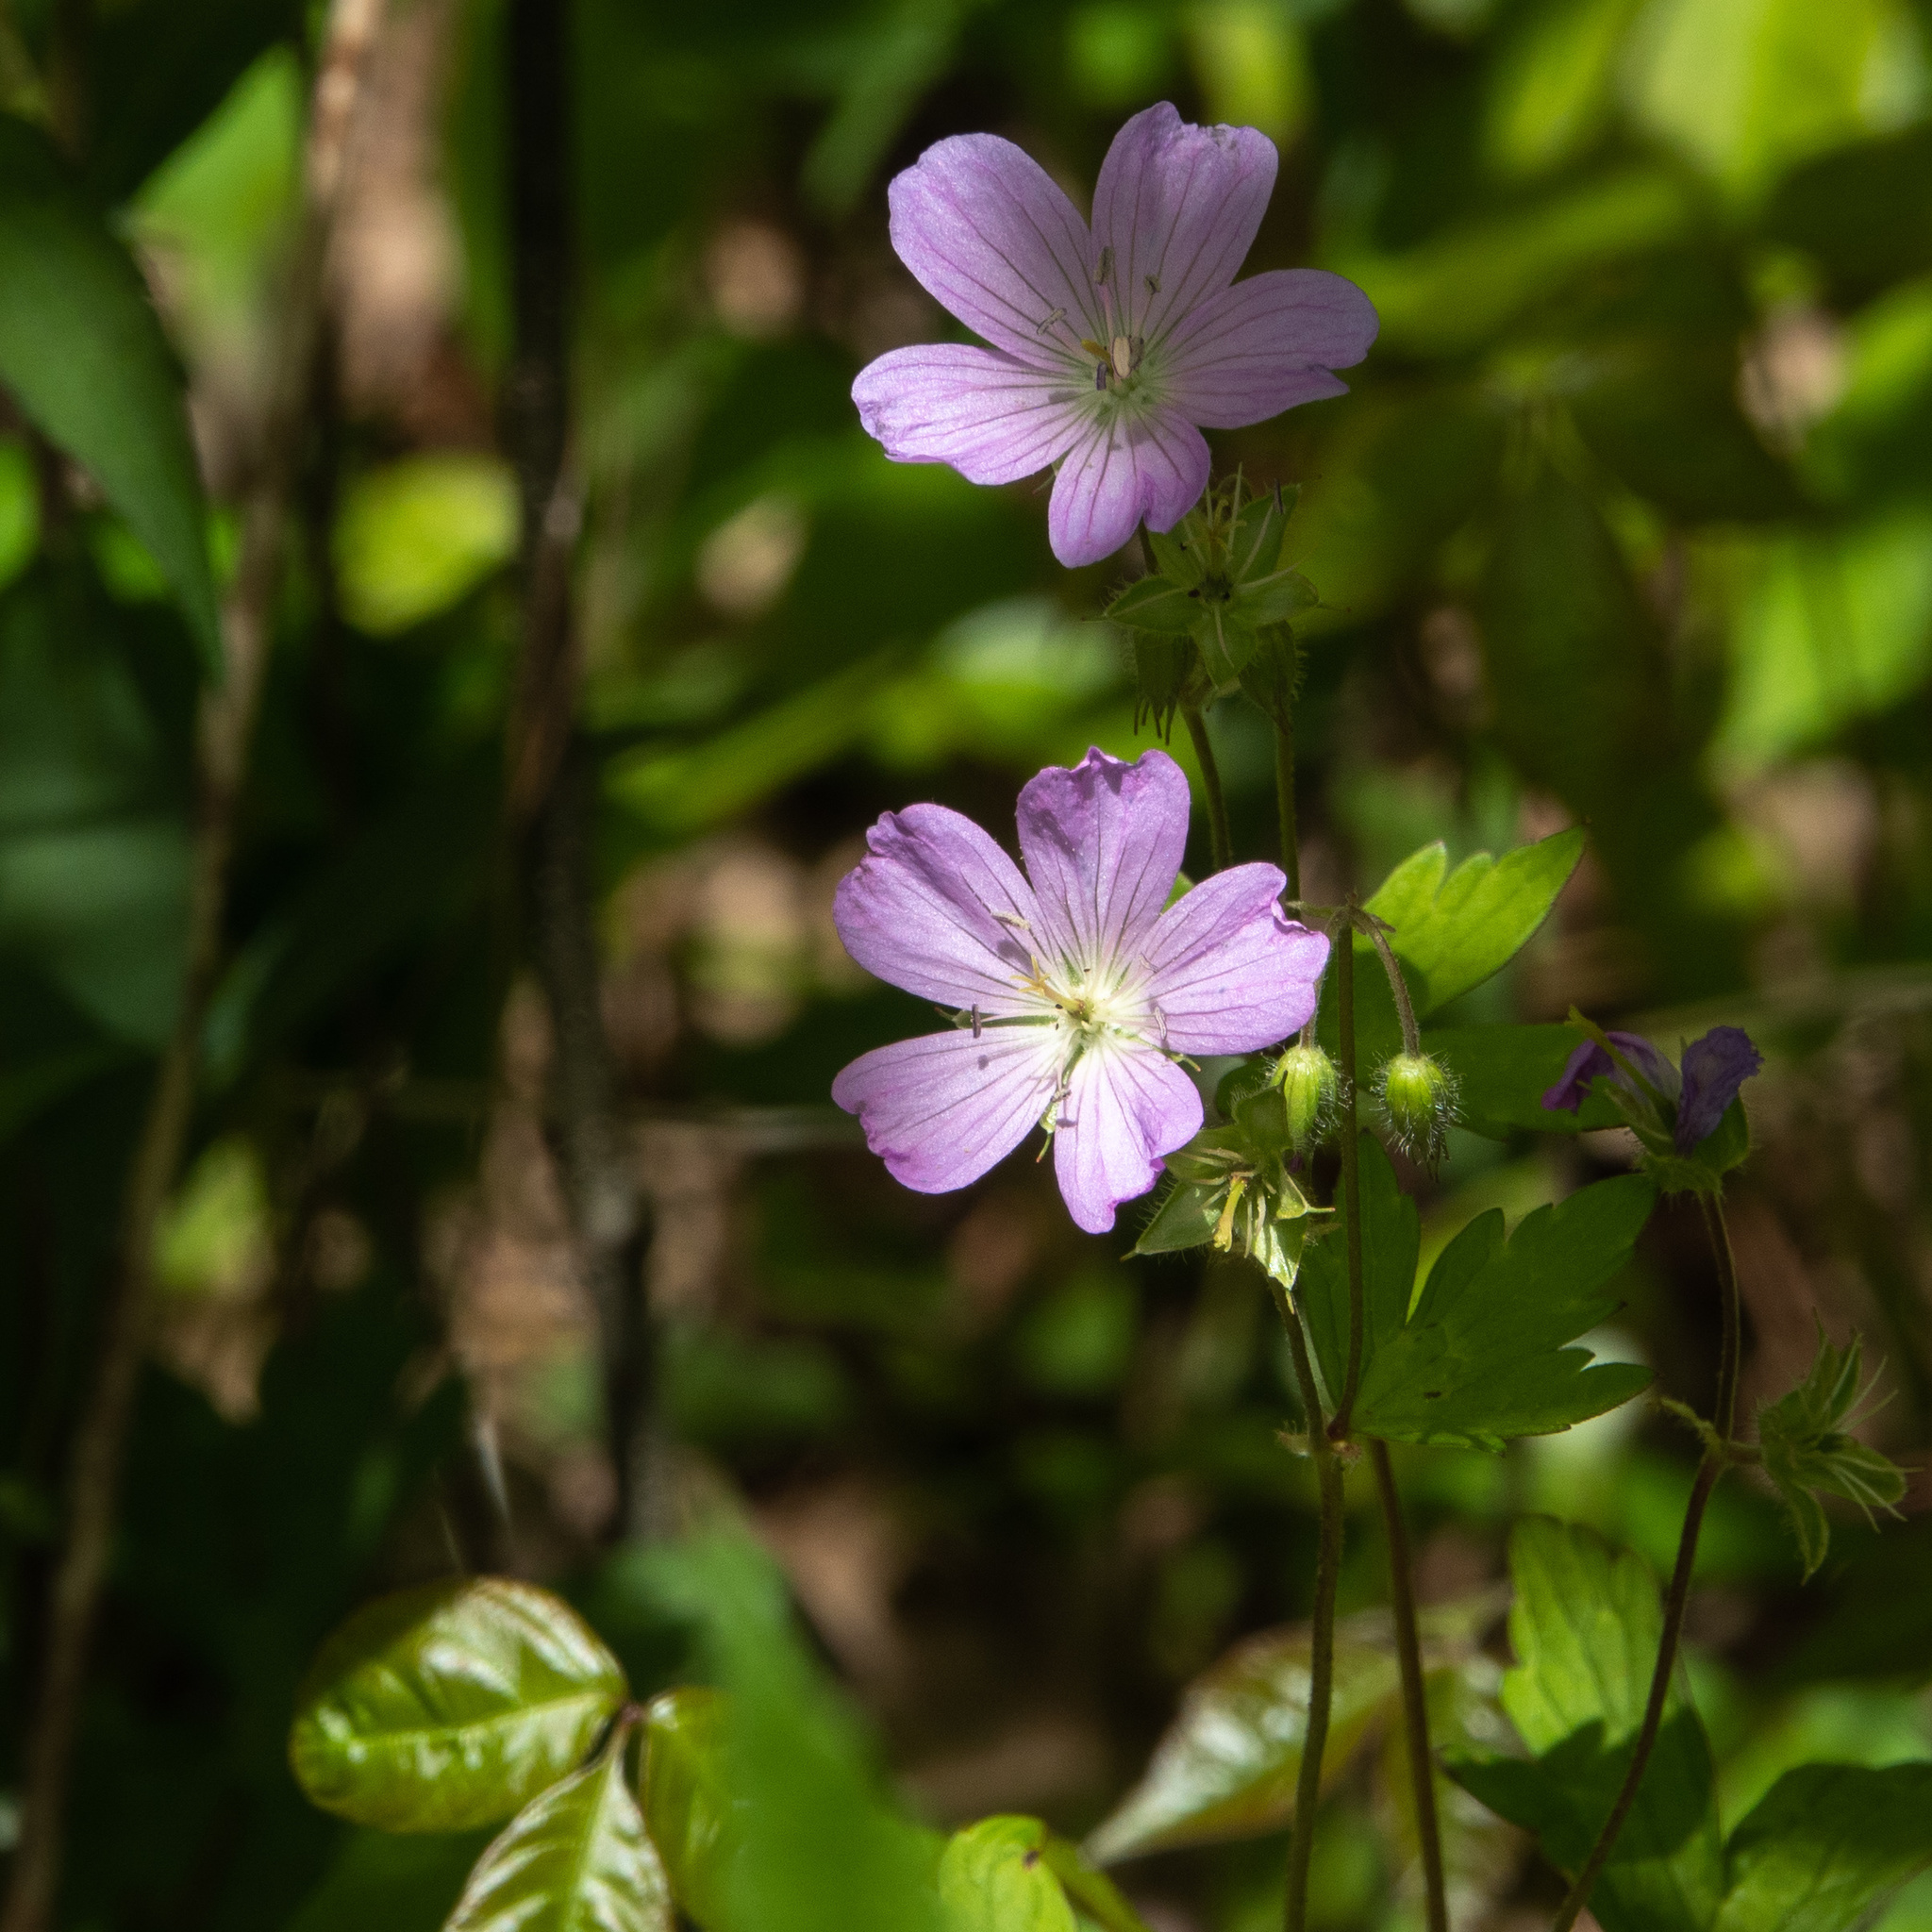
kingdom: Plantae
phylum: Tracheophyta
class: Magnoliopsida
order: Geraniales
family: Geraniaceae
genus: Geranium
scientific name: Geranium maculatum
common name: Spotted geranium
